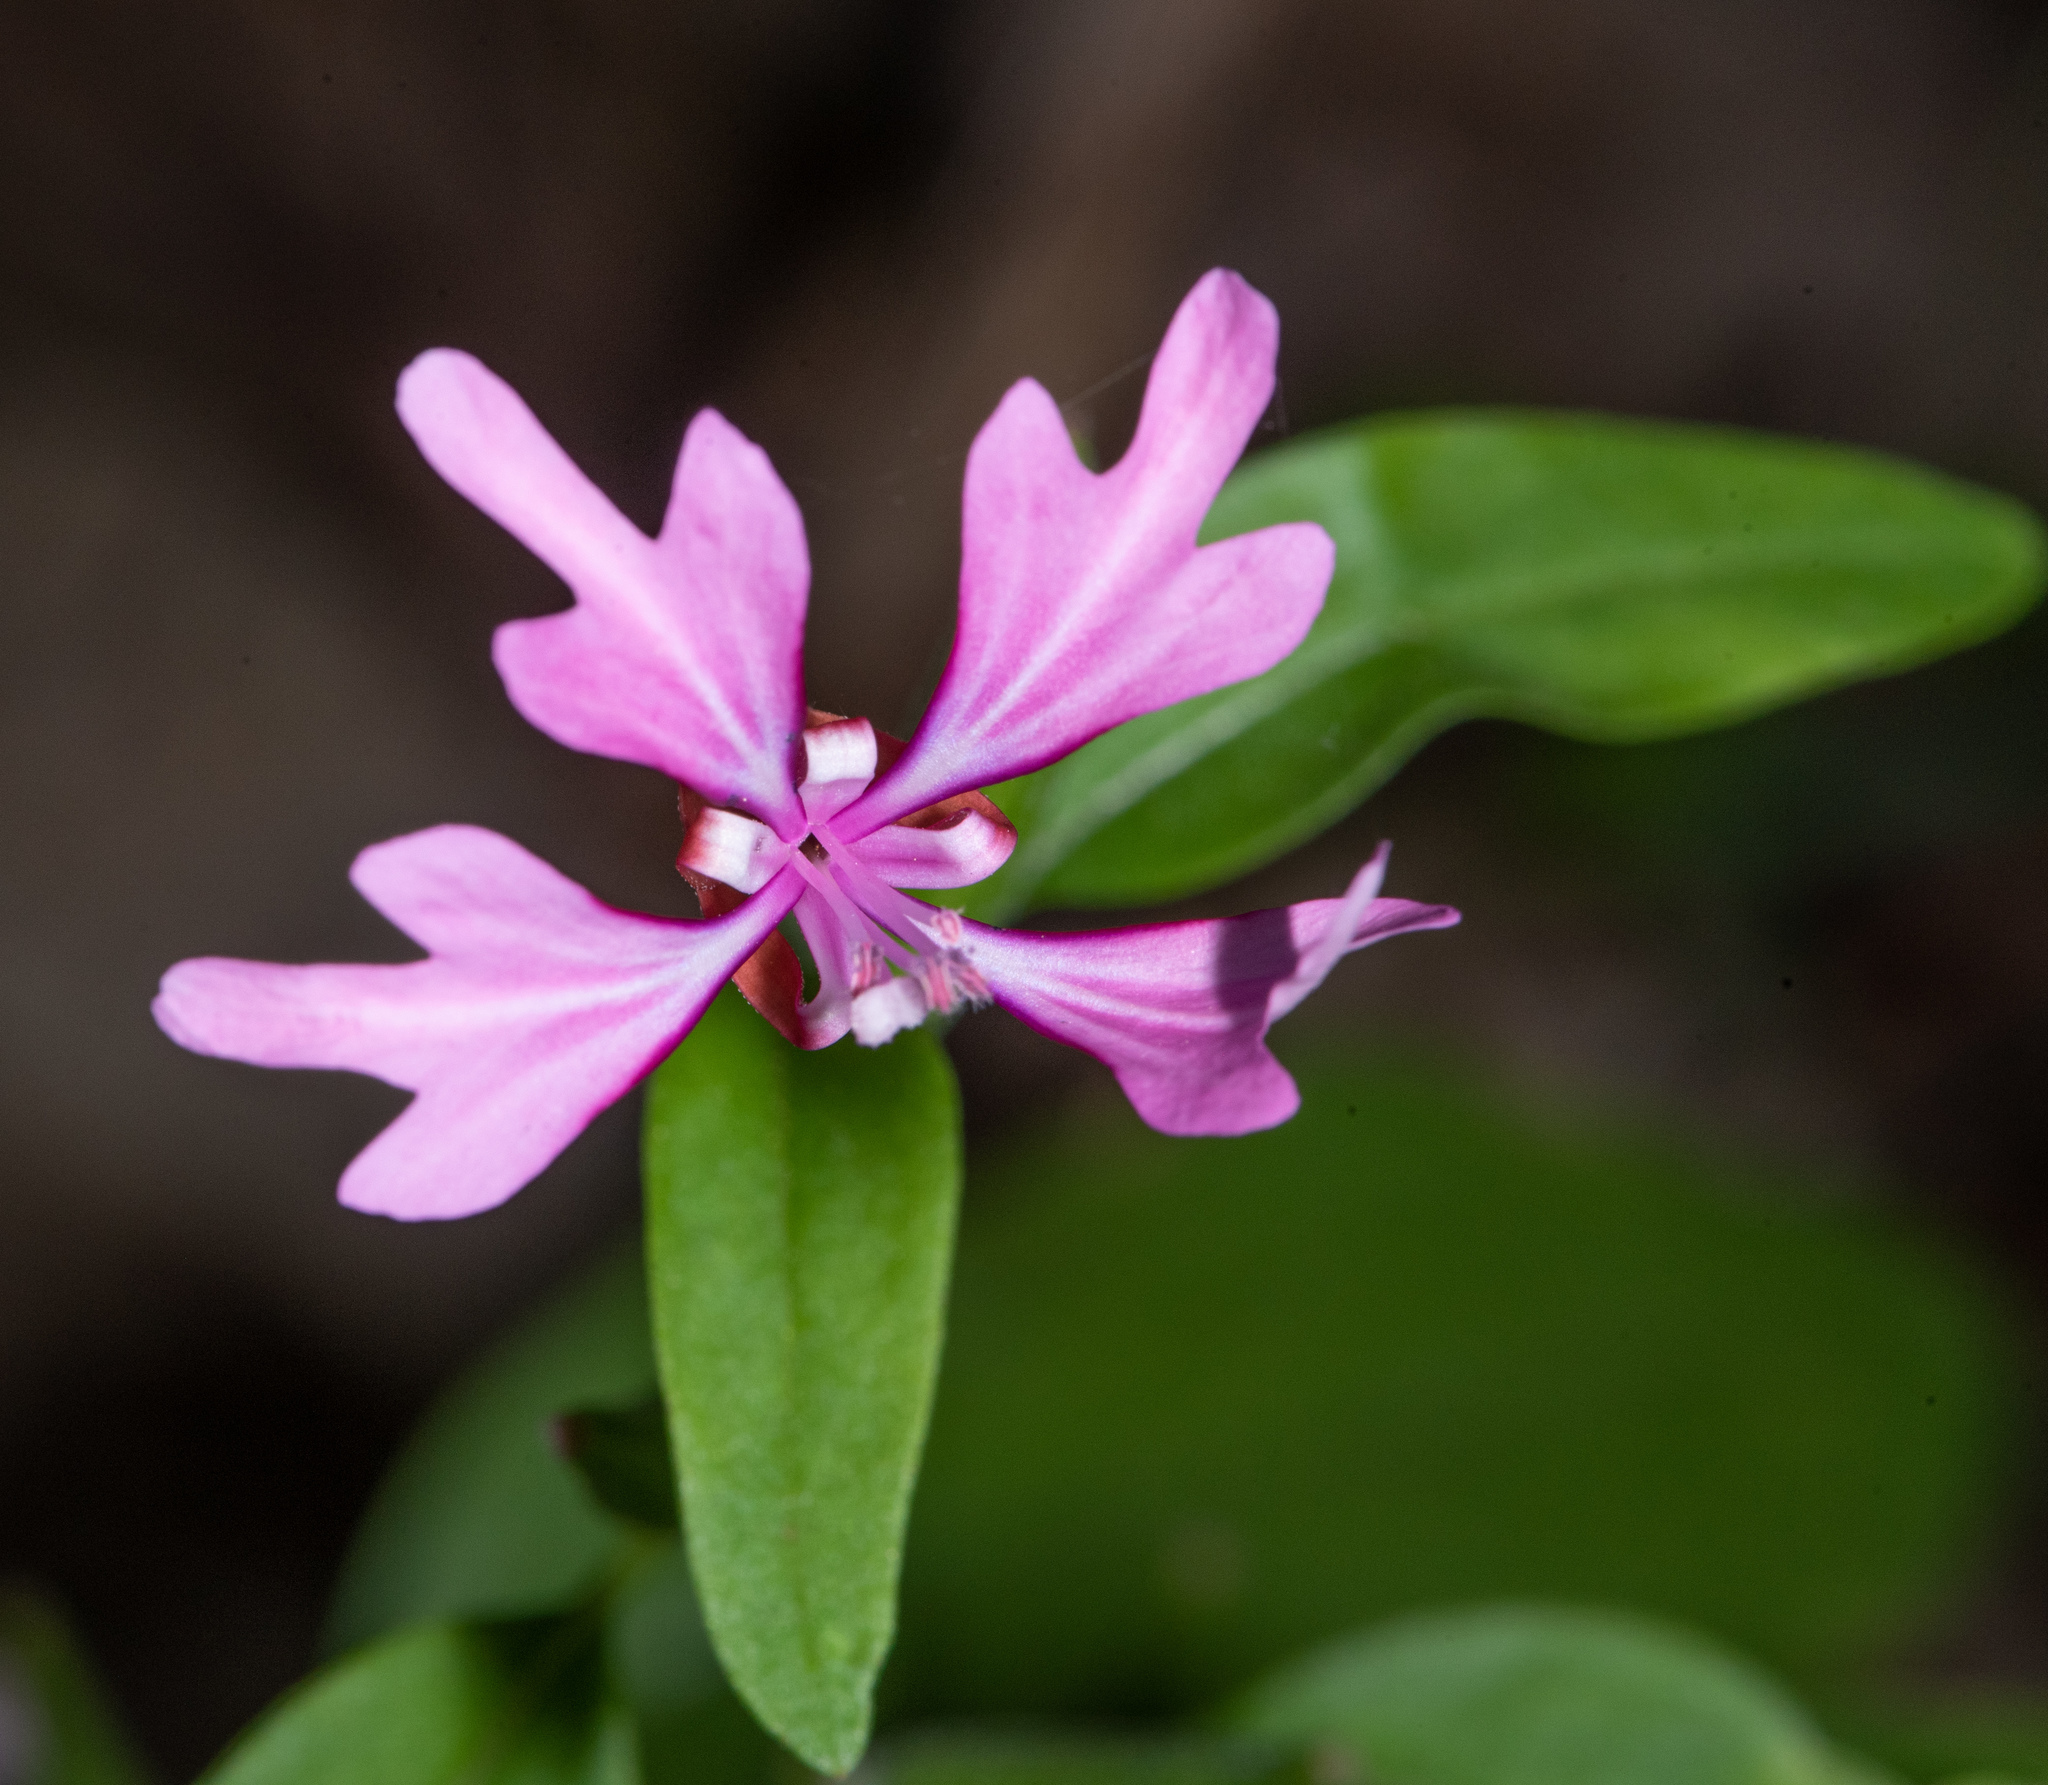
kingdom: Plantae
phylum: Tracheophyta
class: Magnoliopsida
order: Myrtales
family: Onagraceae
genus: Clarkia
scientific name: Clarkia concinna
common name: Red-ribbons
